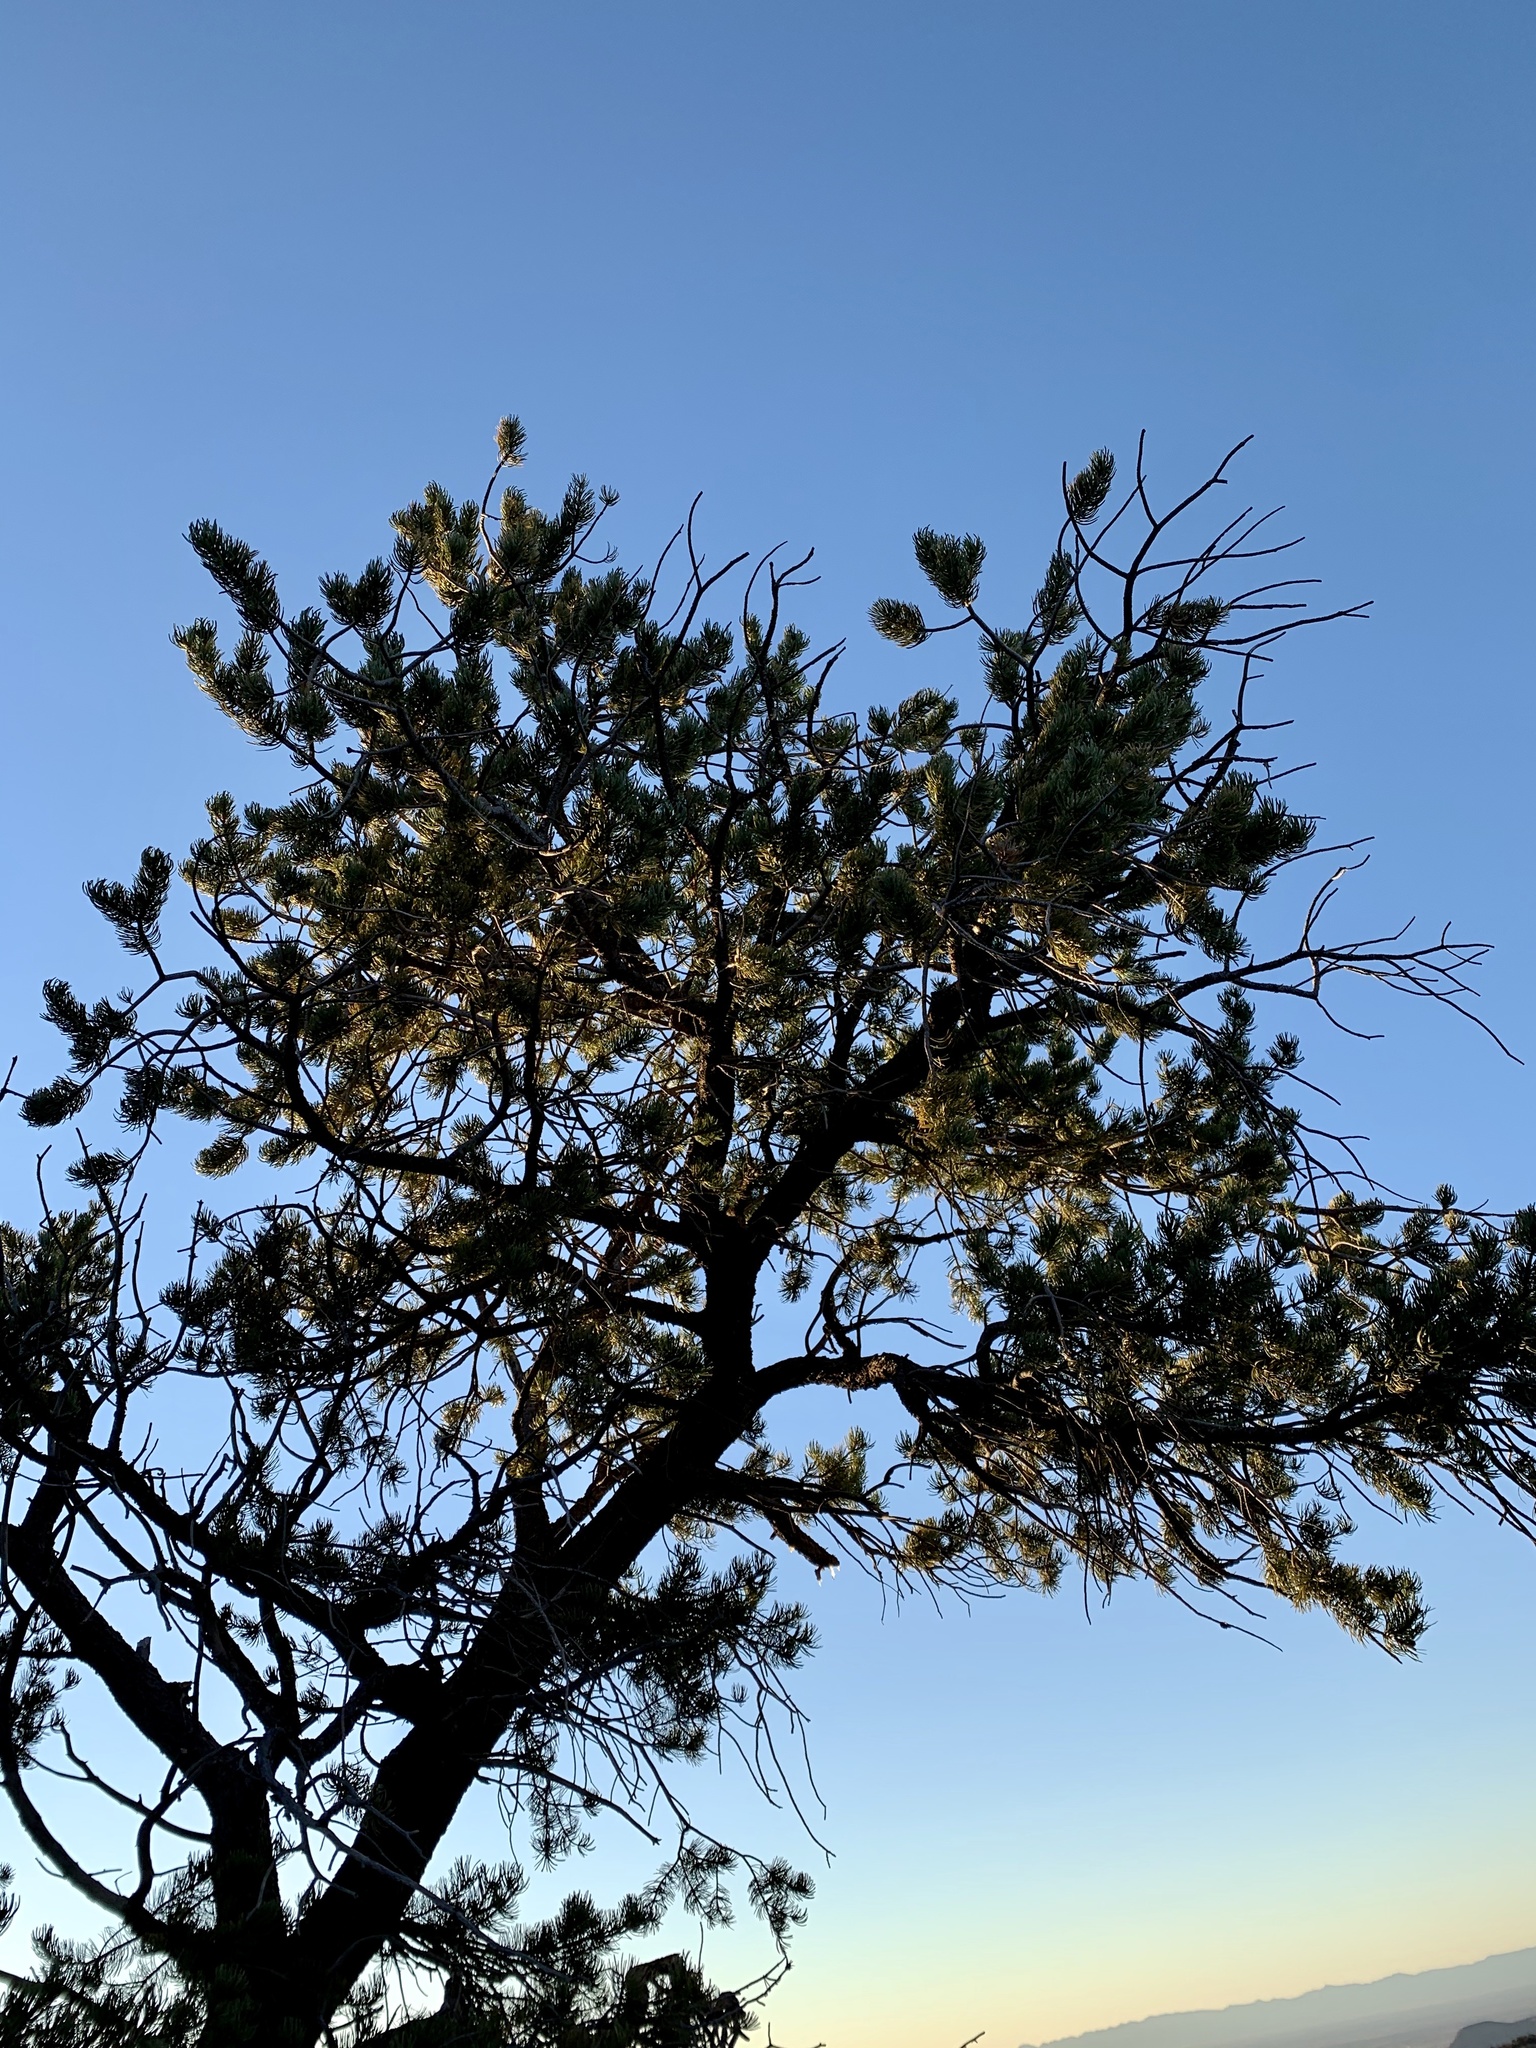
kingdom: Plantae
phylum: Tracheophyta
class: Pinopsida
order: Pinales
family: Pinaceae
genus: Pinus
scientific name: Pinus edulis
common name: Colorado pinyon
